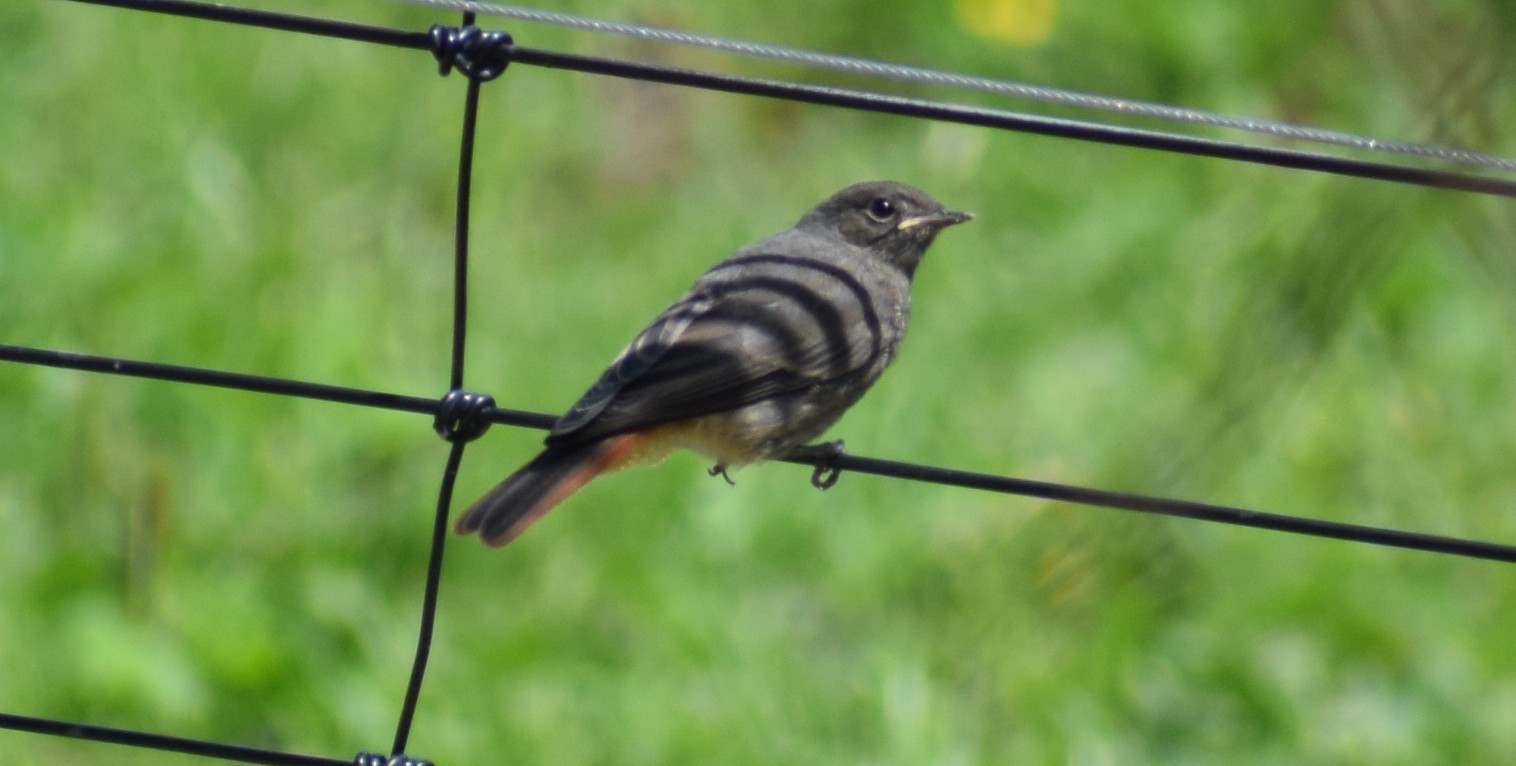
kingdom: Animalia
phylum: Chordata
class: Aves
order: Passeriformes
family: Muscicapidae
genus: Phoenicurus
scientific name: Phoenicurus ochruros
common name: Black redstart
